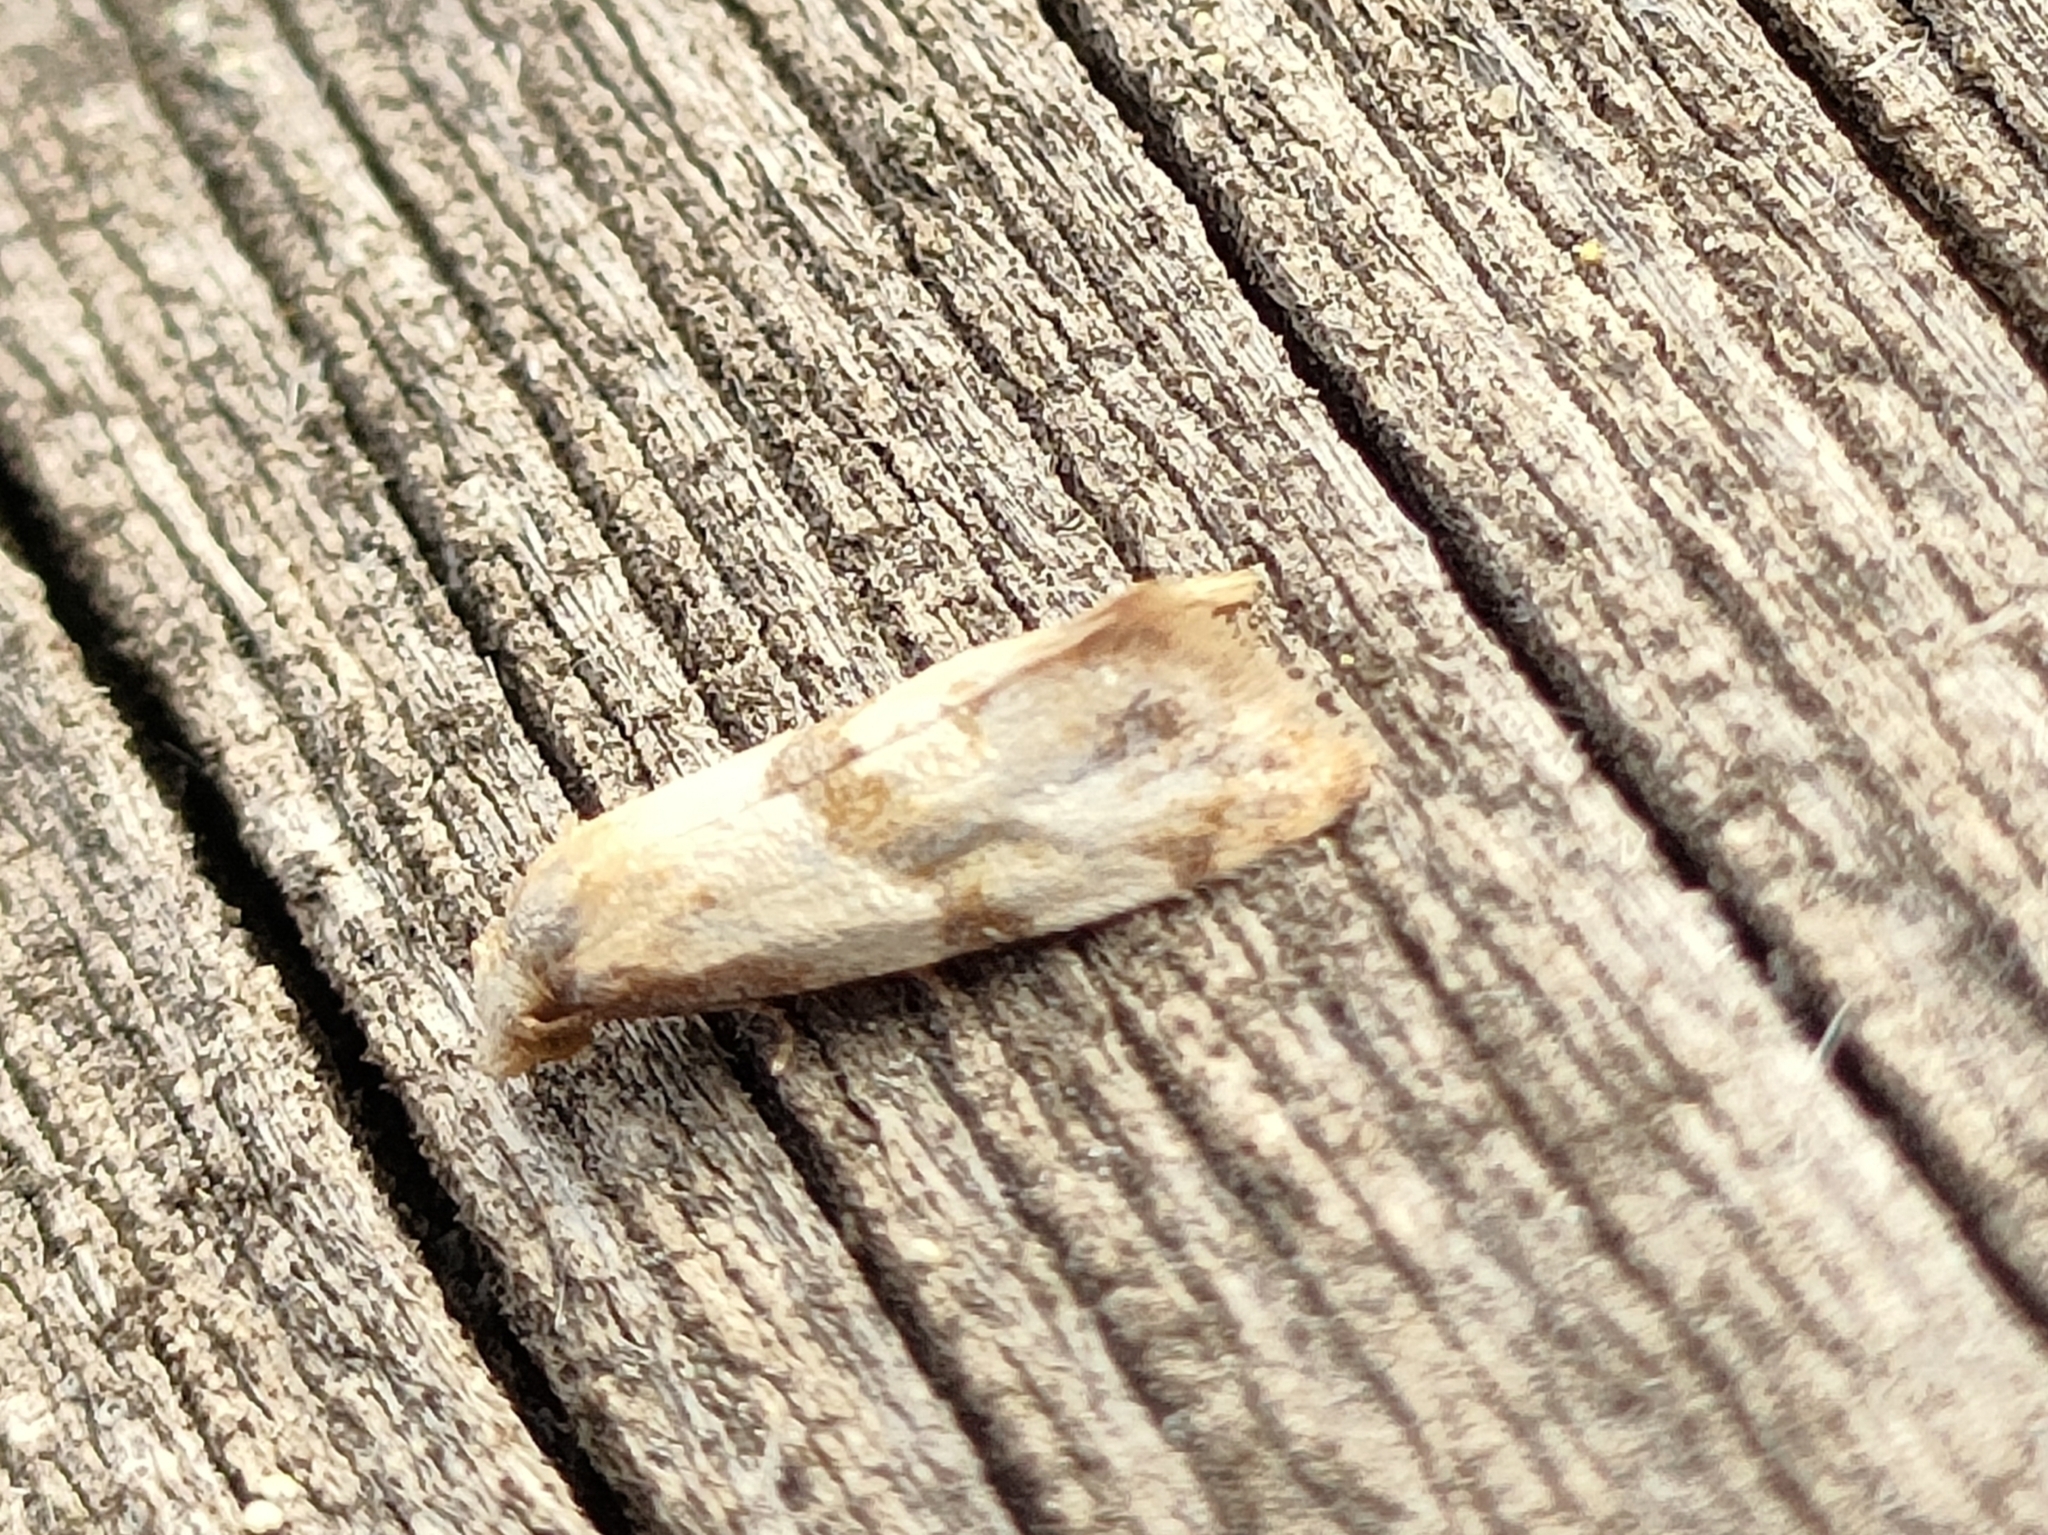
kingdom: Animalia
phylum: Arthropoda
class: Insecta
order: Lepidoptera
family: Tortricidae
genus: Phalonidia
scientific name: Phalonidia contractana
